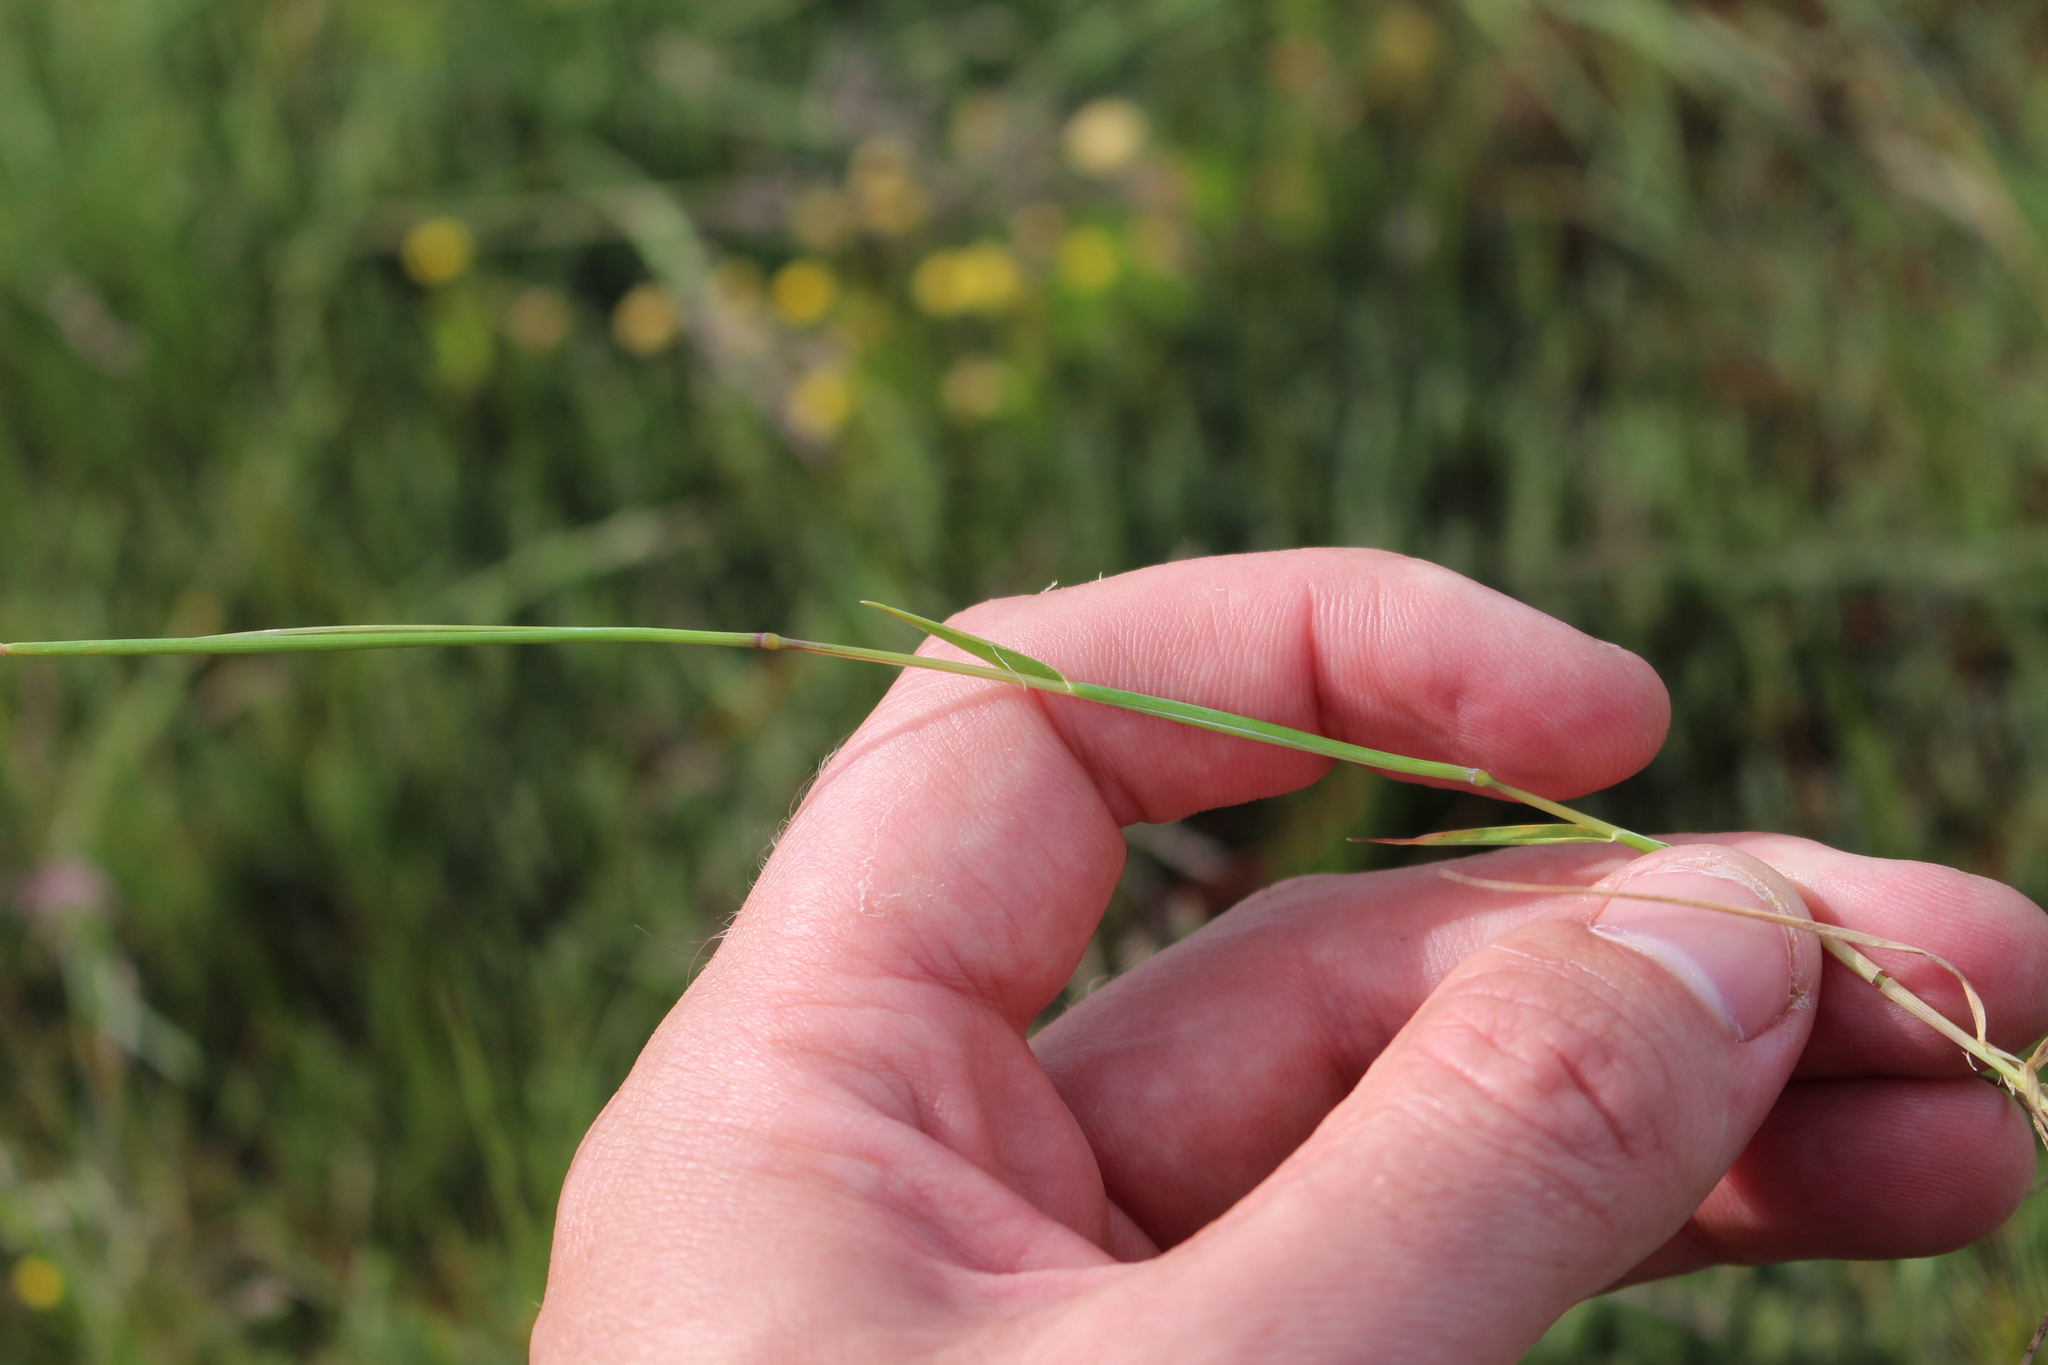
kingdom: Plantae
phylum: Tracheophyta
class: Liliopsida
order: Poales
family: Poaceae
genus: Hordeum
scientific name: Hordeum marinum
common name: Sea barley
